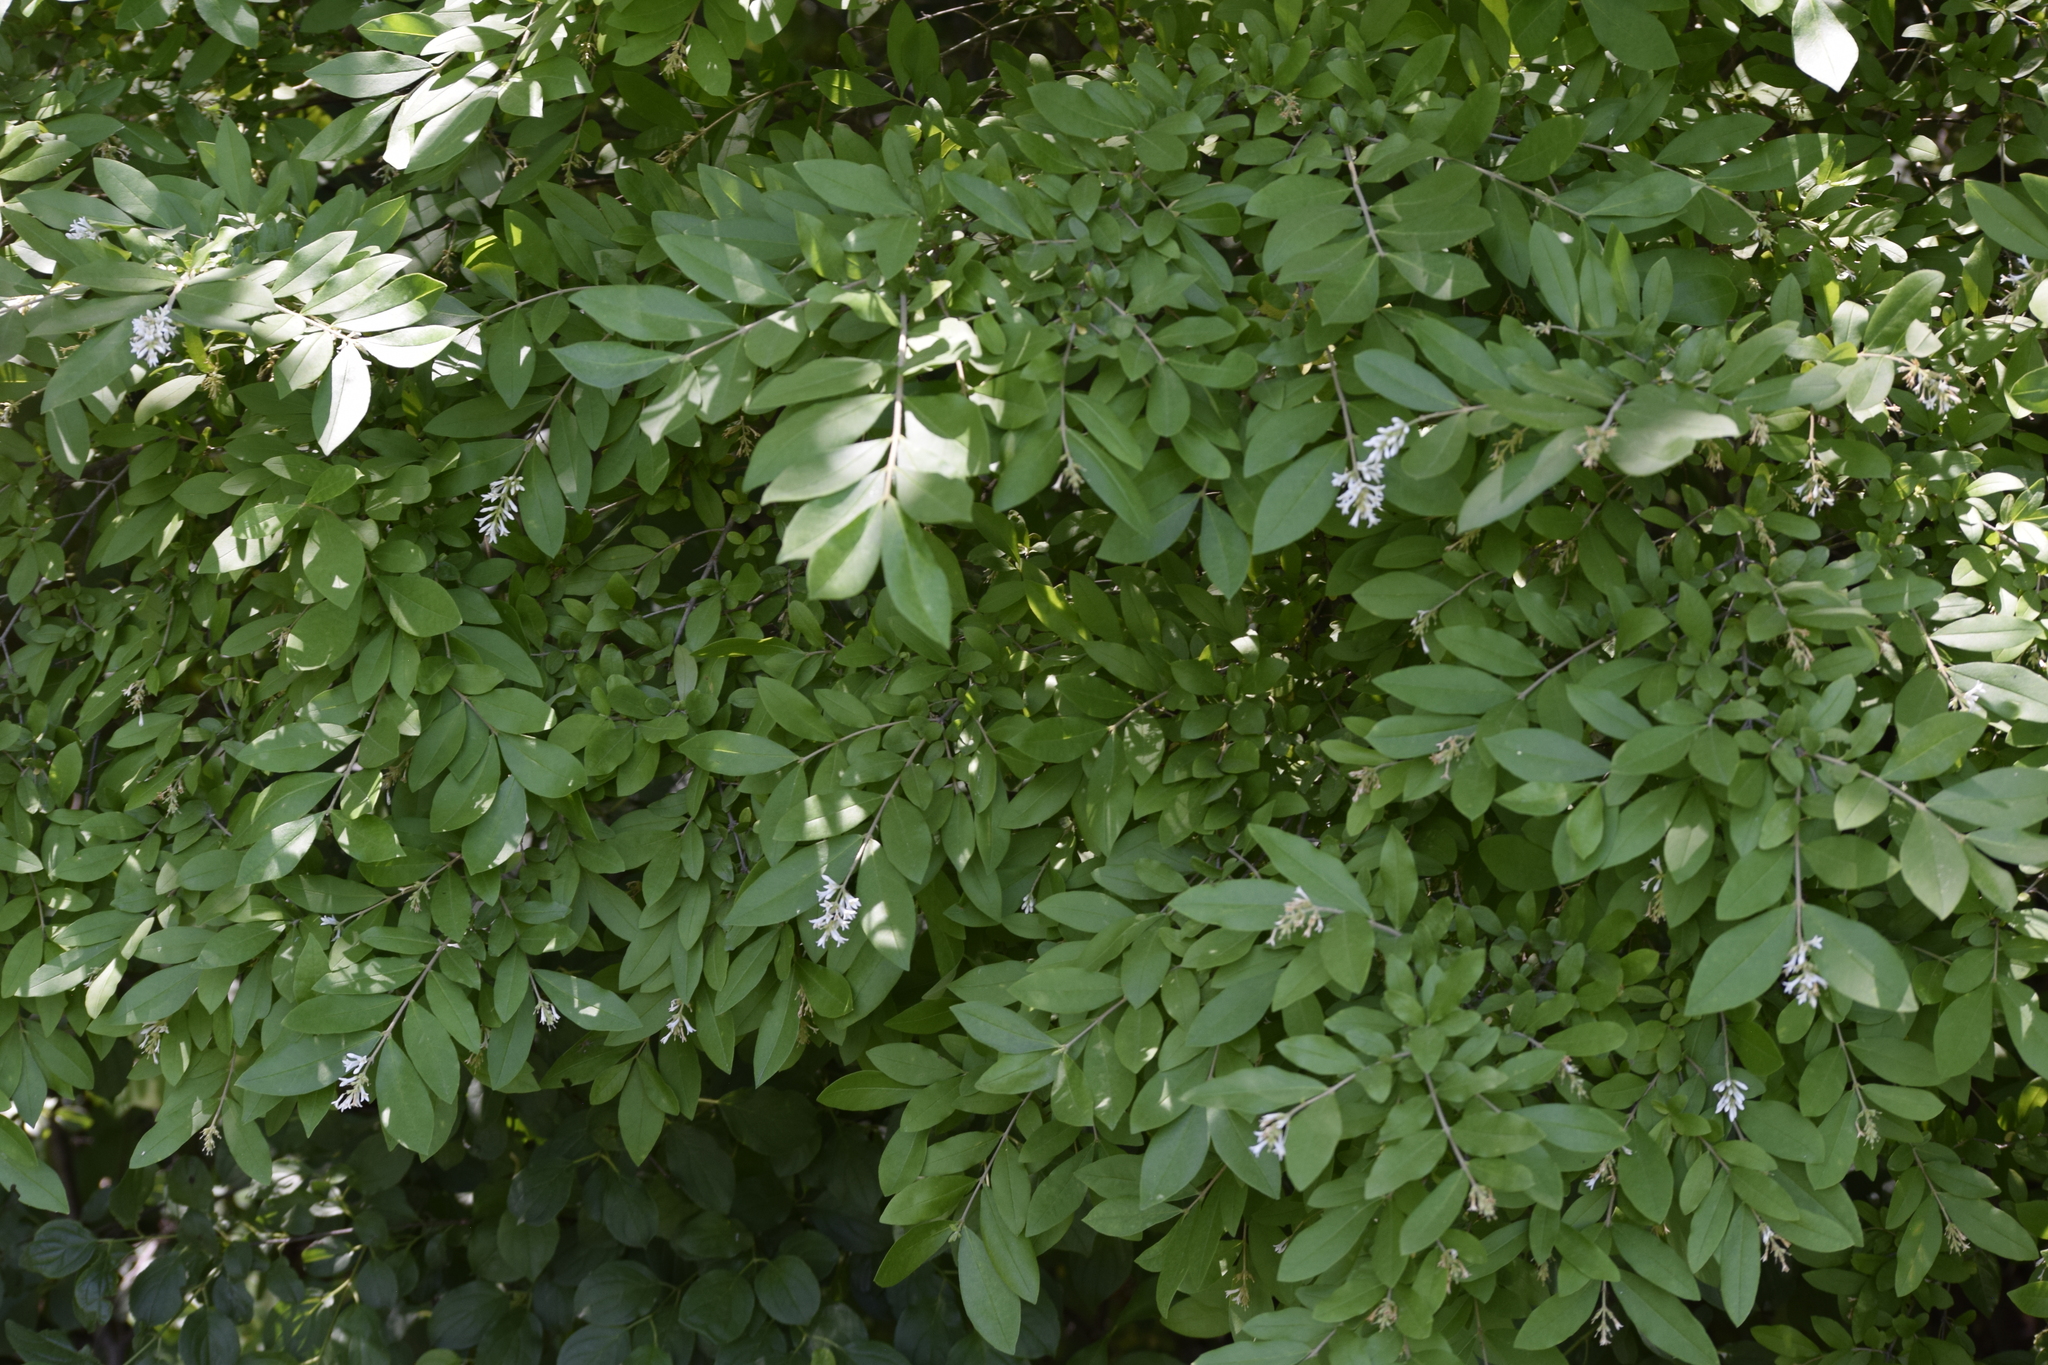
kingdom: Plantae
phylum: Tracheophyta
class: Magnoliopsida
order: Lamiales
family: Oleaceae
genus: Ligustrum
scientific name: Ligustrum obtusifolium
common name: Border privet
